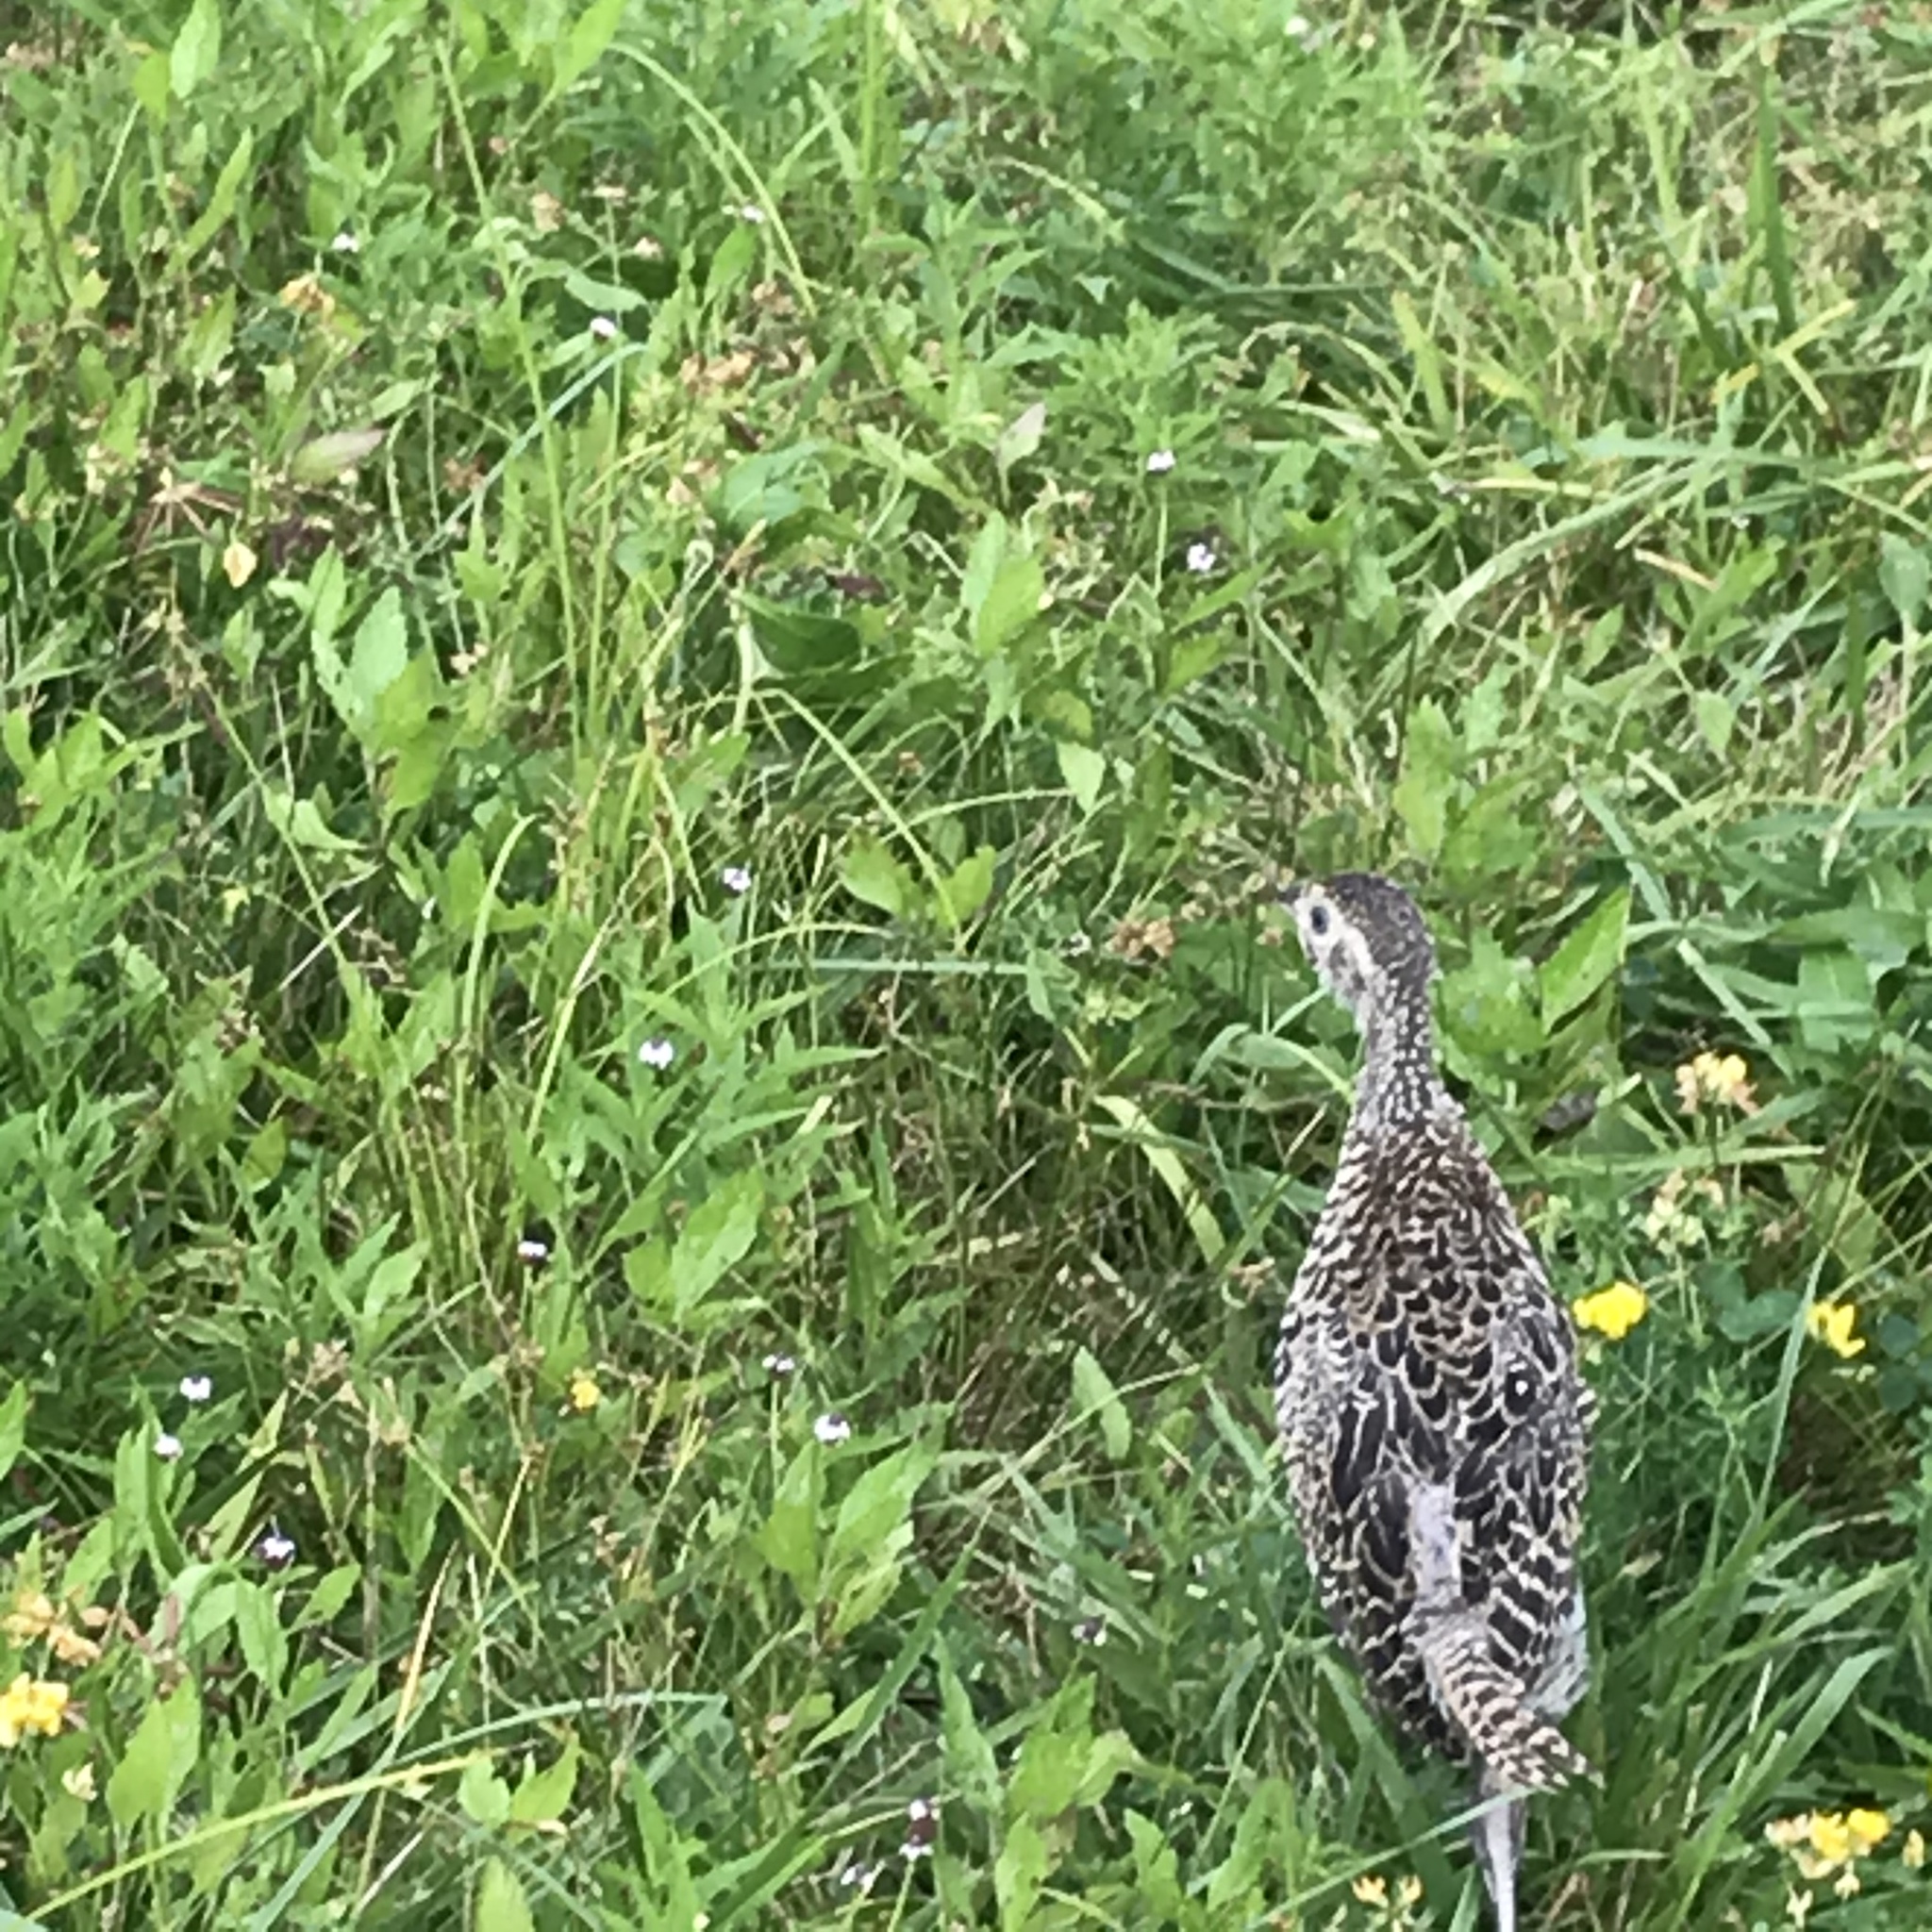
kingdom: Animalia
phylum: Chordata
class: Aves
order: Galliformes
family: Phasianidae
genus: Phasianus
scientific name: Phasianus colchicus
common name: Common pheasant
